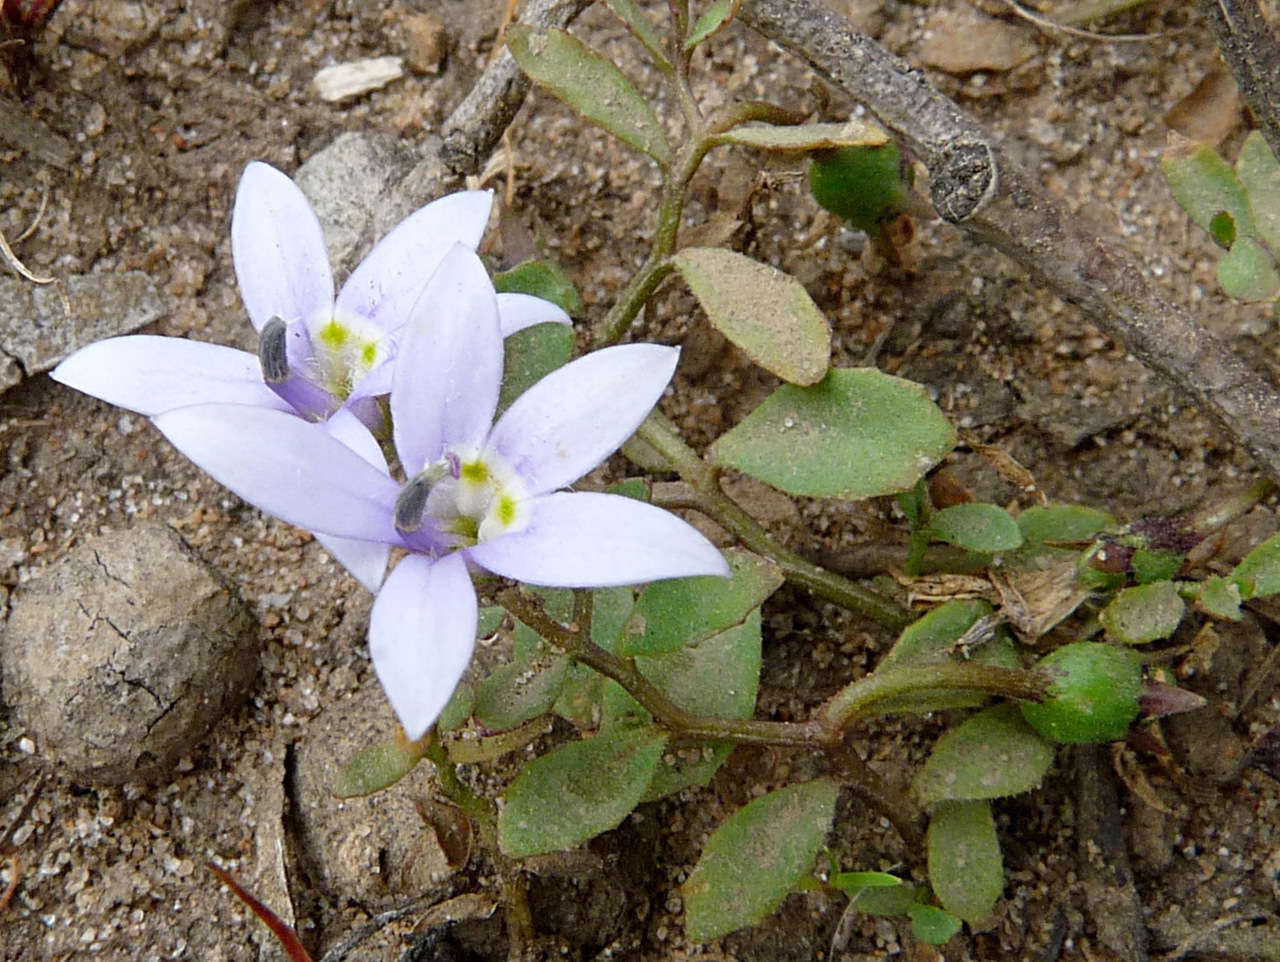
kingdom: Plantae
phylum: Tracheophyta
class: Magnoliopsida
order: Asterales
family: Campanulaceae
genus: Isotoma
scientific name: Isotoma fluviatilis
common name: Isotoma
